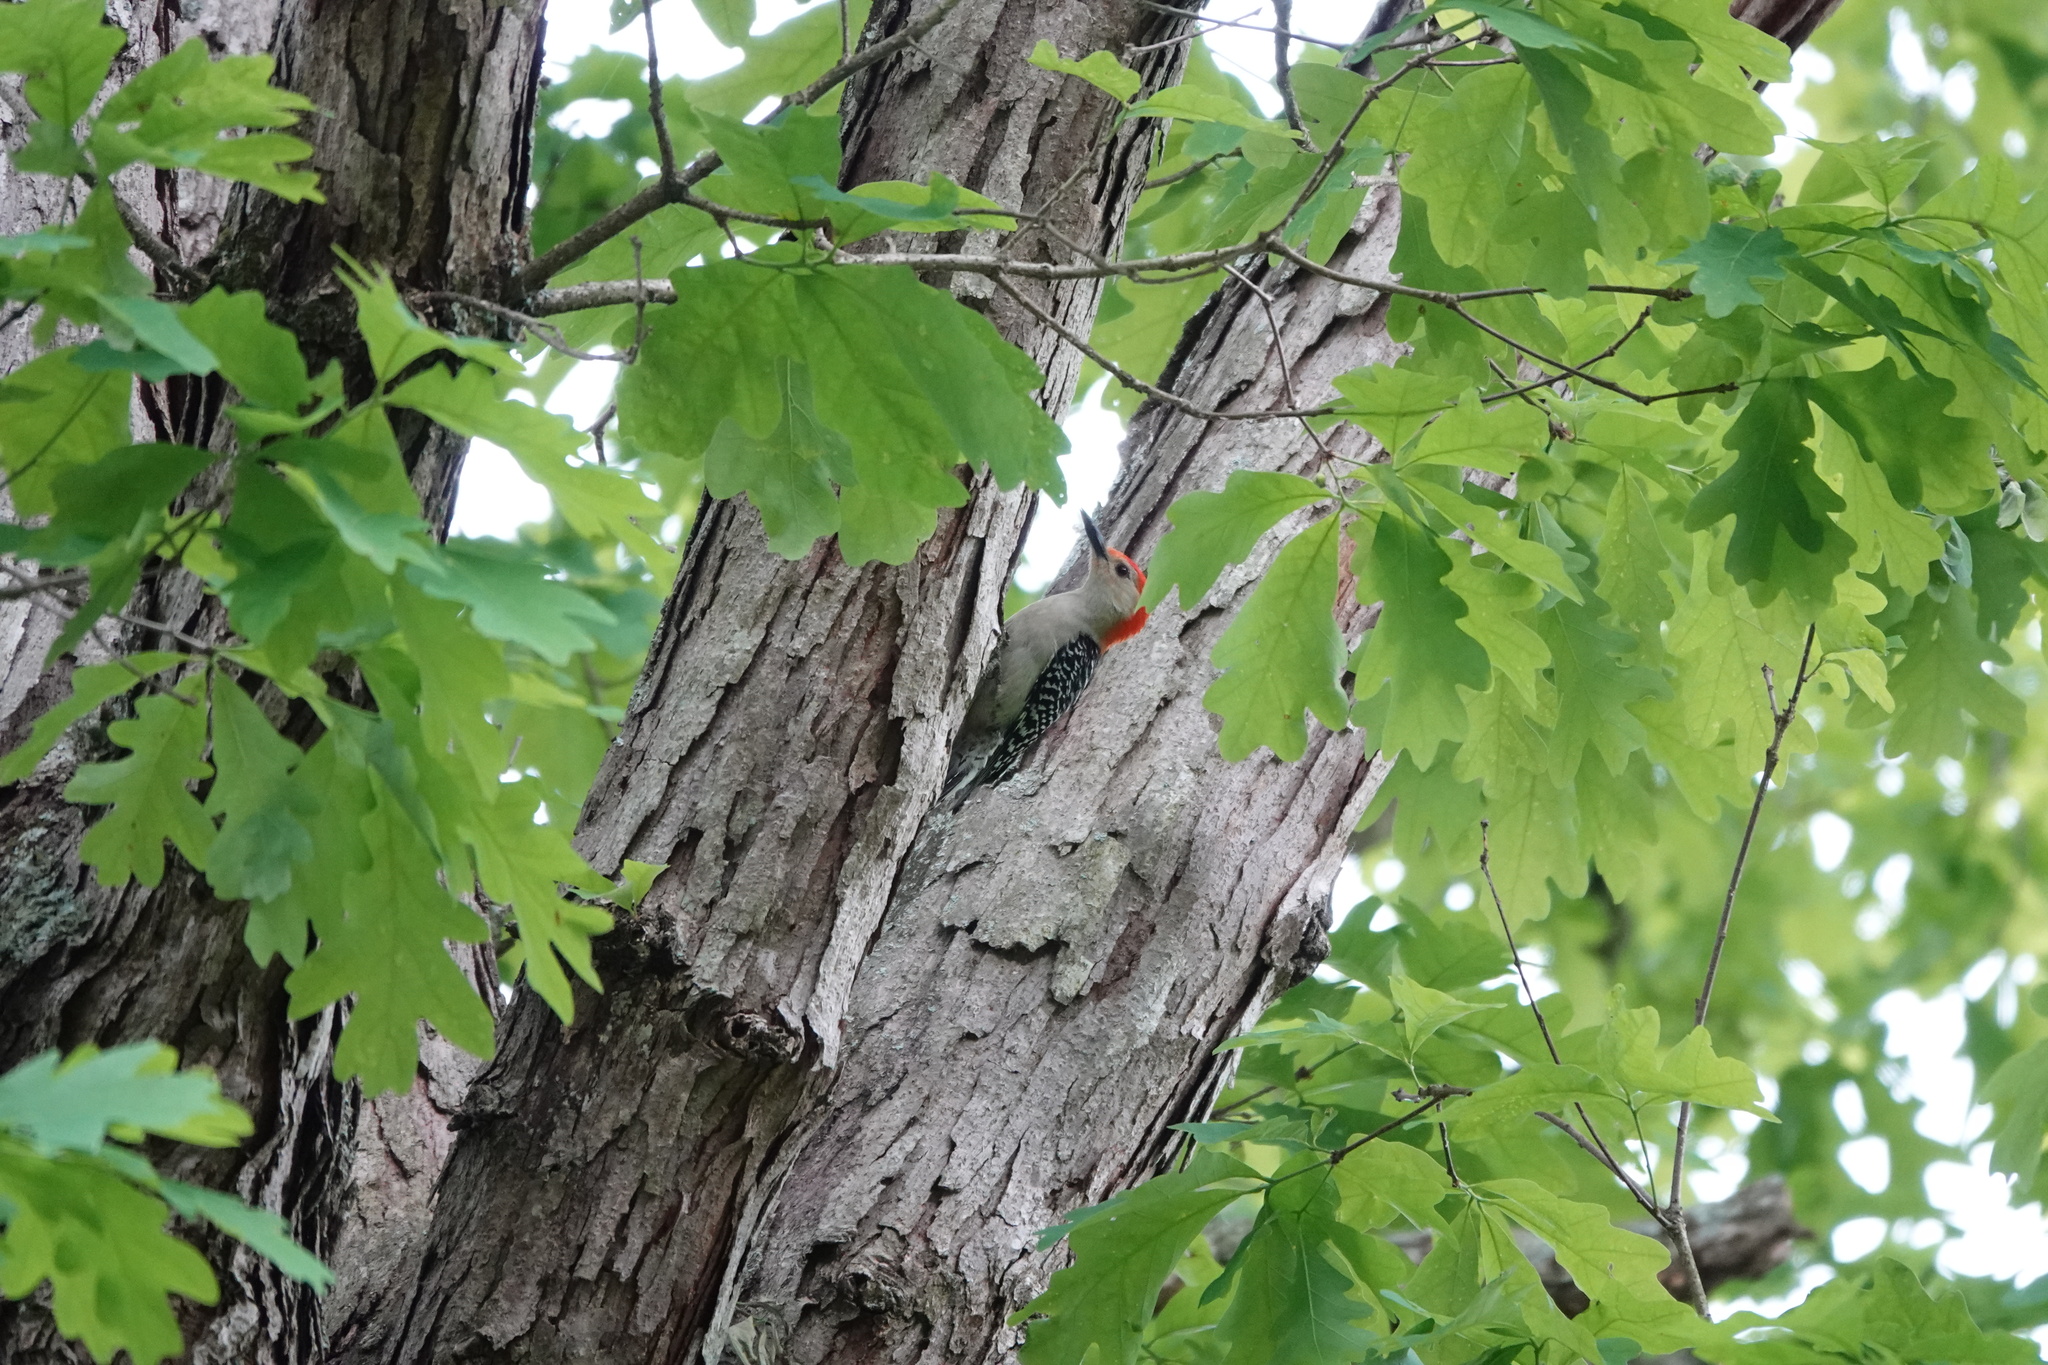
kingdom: Animalia
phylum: Chordata
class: Aves
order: Piciformes
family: Picidae
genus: Melanerpes
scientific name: Melanerpes carolinus
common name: Red-bellied woodpecker
